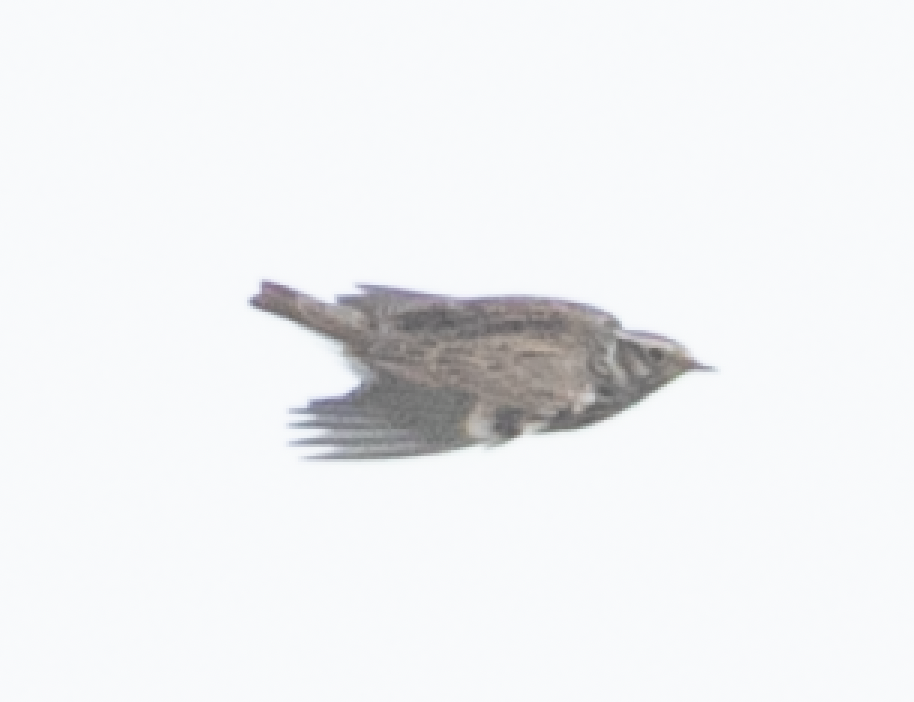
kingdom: Animalia
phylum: Chordata
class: Aves
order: Passeriformes
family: Alaudidae
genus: Lullula
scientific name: Lullula arborea
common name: Woodlark
